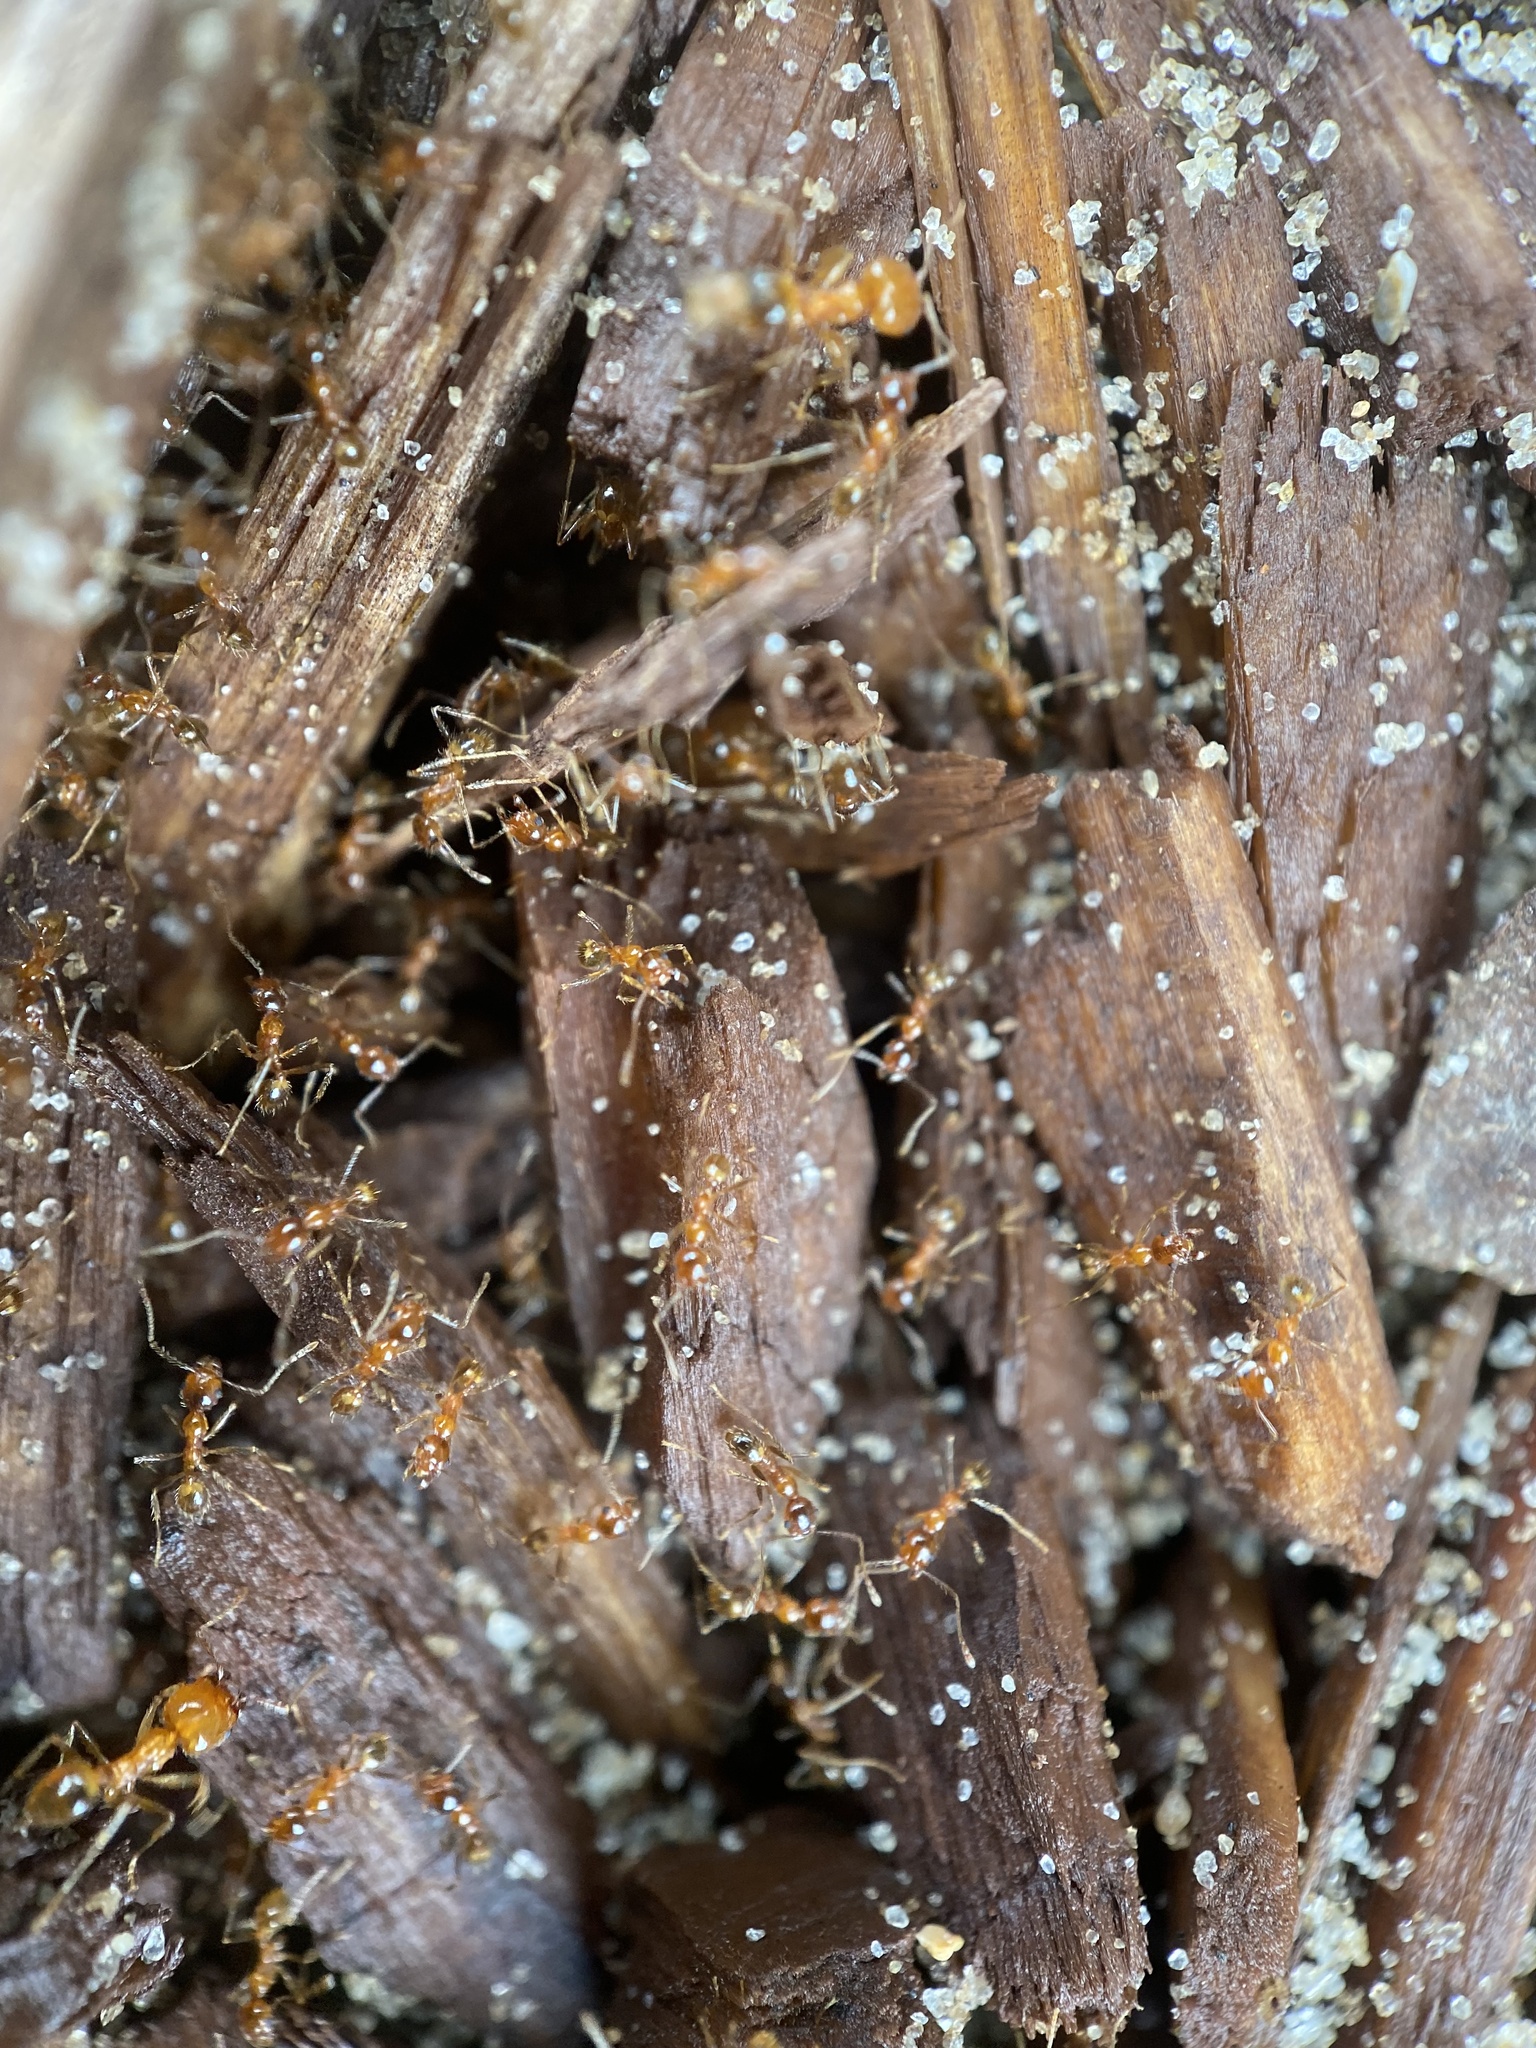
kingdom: Animalia
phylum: Arthropoda
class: Insecta
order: Hymenoptera
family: Formicidae
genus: Pheidole
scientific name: Pheidole dentata
